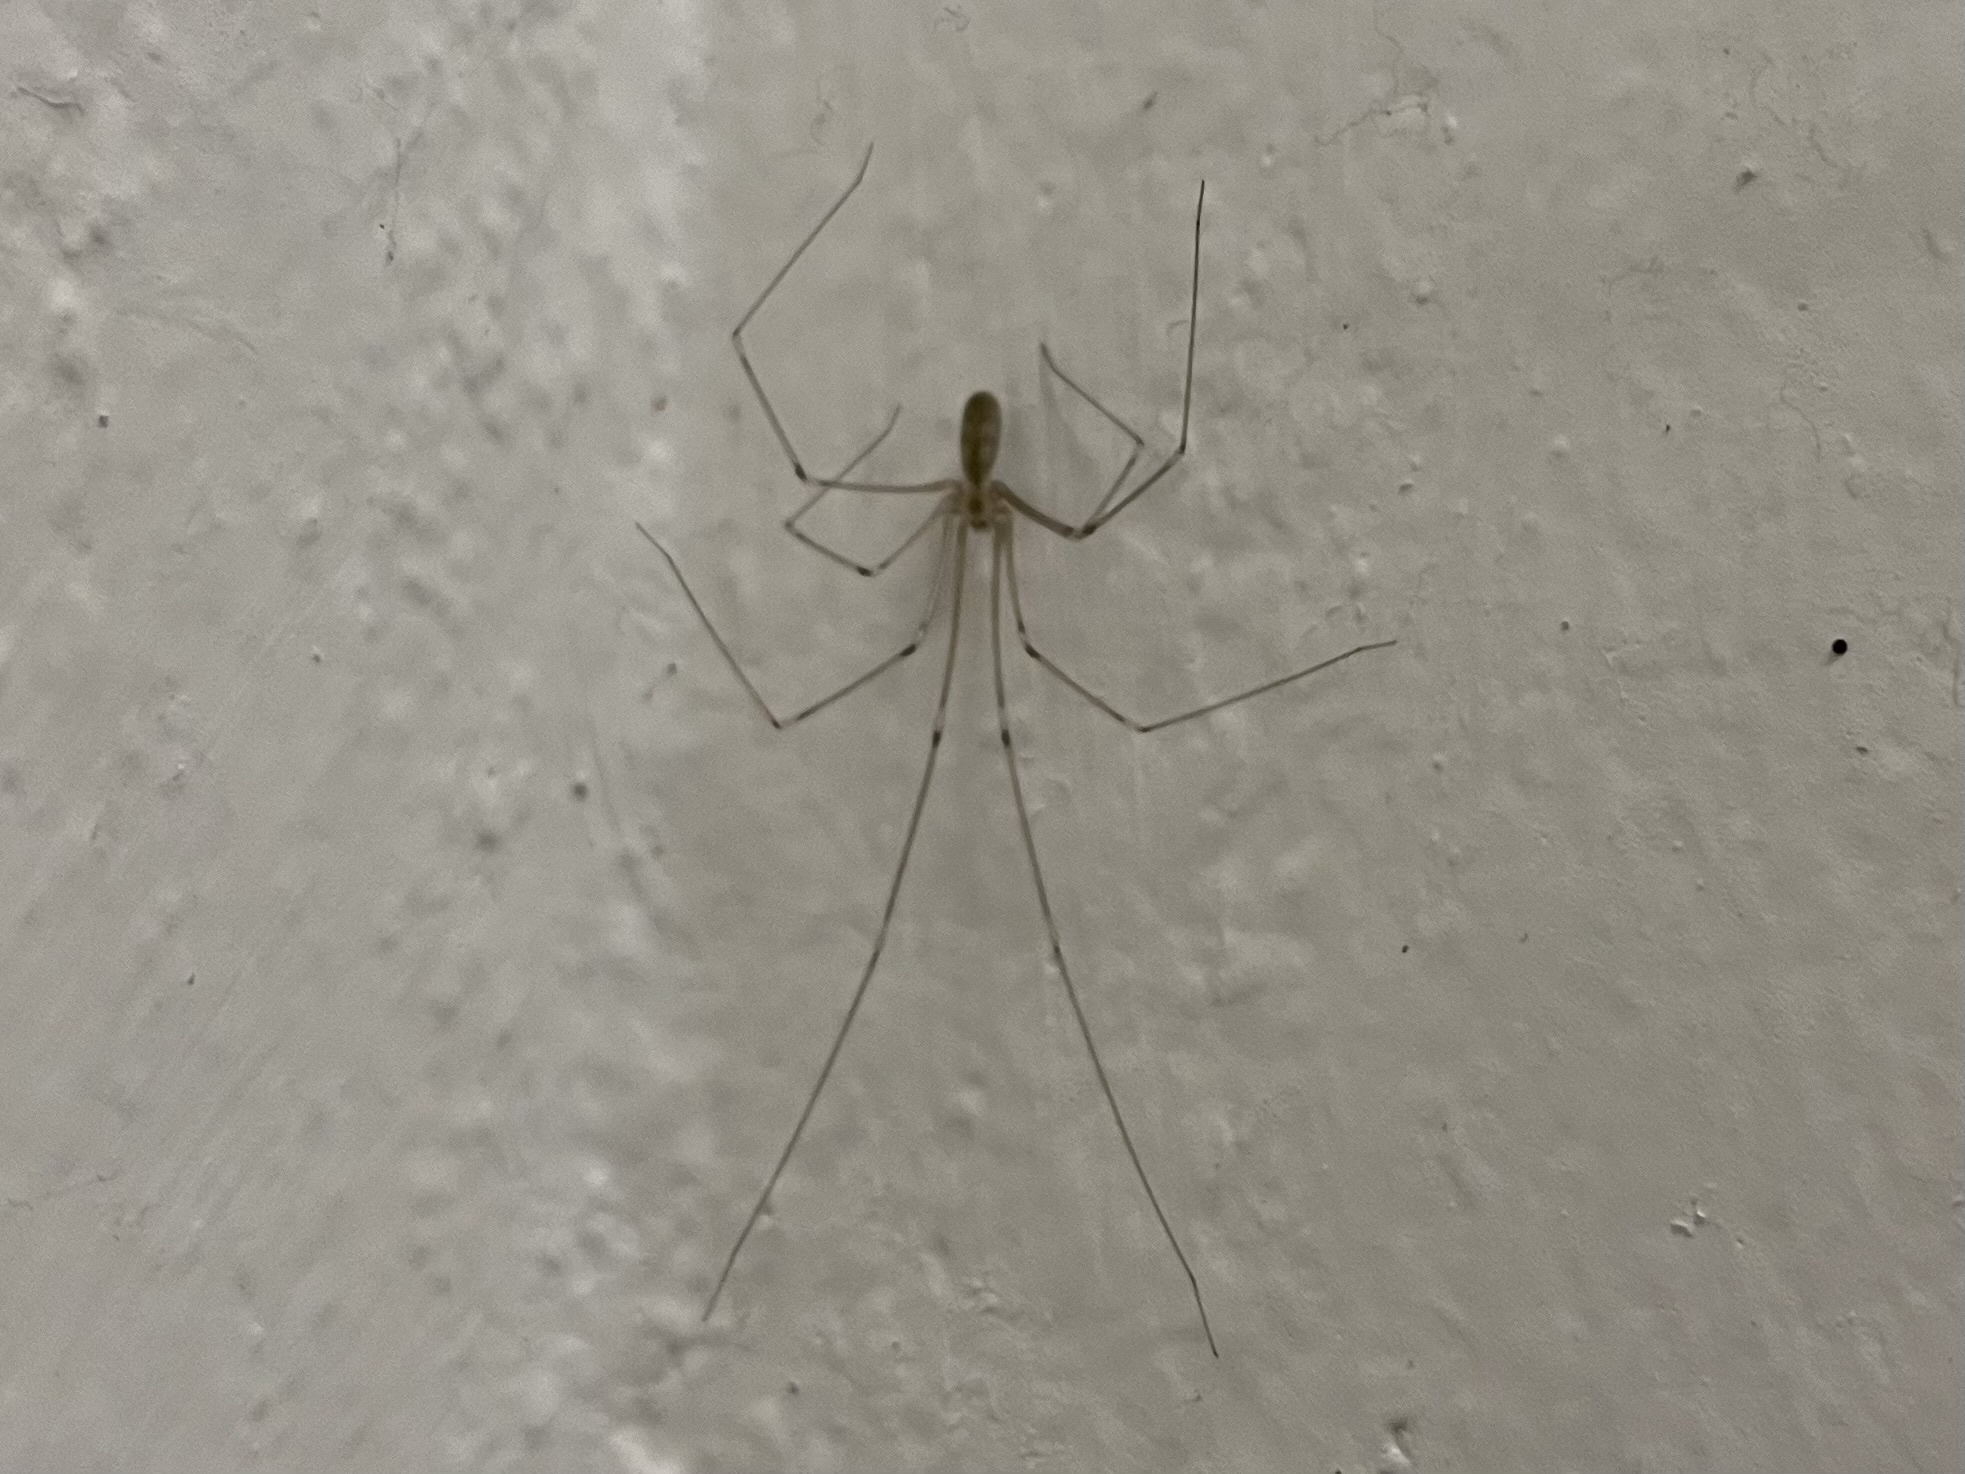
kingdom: Animalia
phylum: Arthropoda
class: Arachnida
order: Araneae
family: Pholcidae
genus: Pholcus
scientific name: Pholcus phalangioides
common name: Longbodied cellar spider
